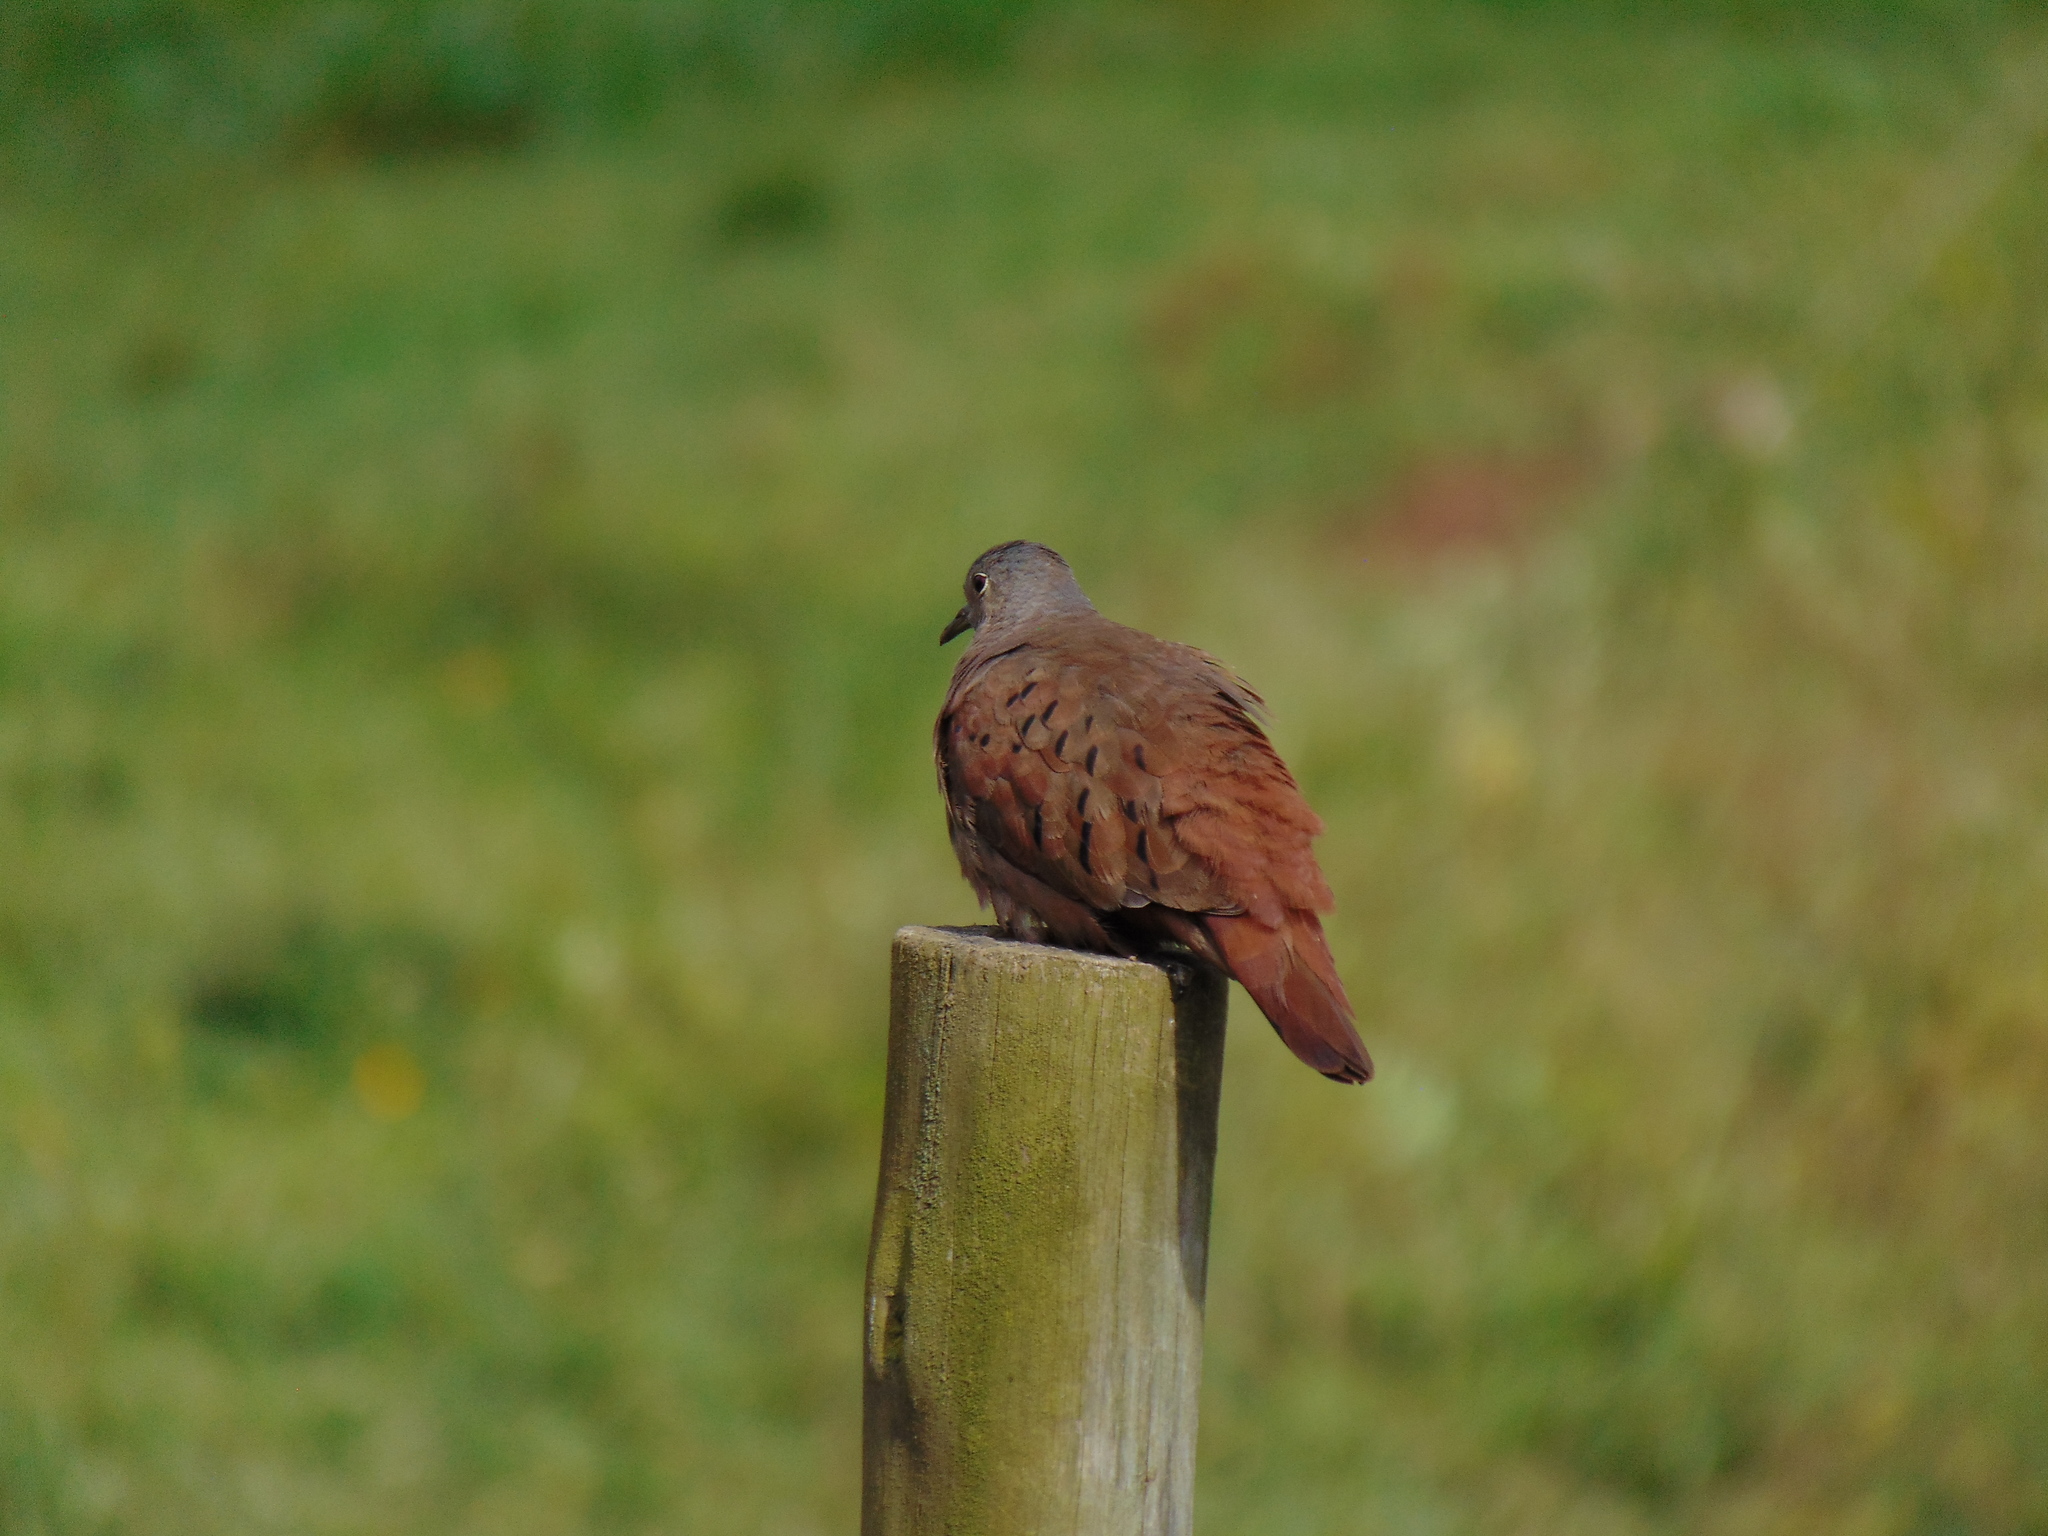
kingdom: Animalia
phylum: Chordata
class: Aves
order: Columbiformes
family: Columbidae
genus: Columbina
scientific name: Columbina talpacoti
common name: Ruddy ground dove
